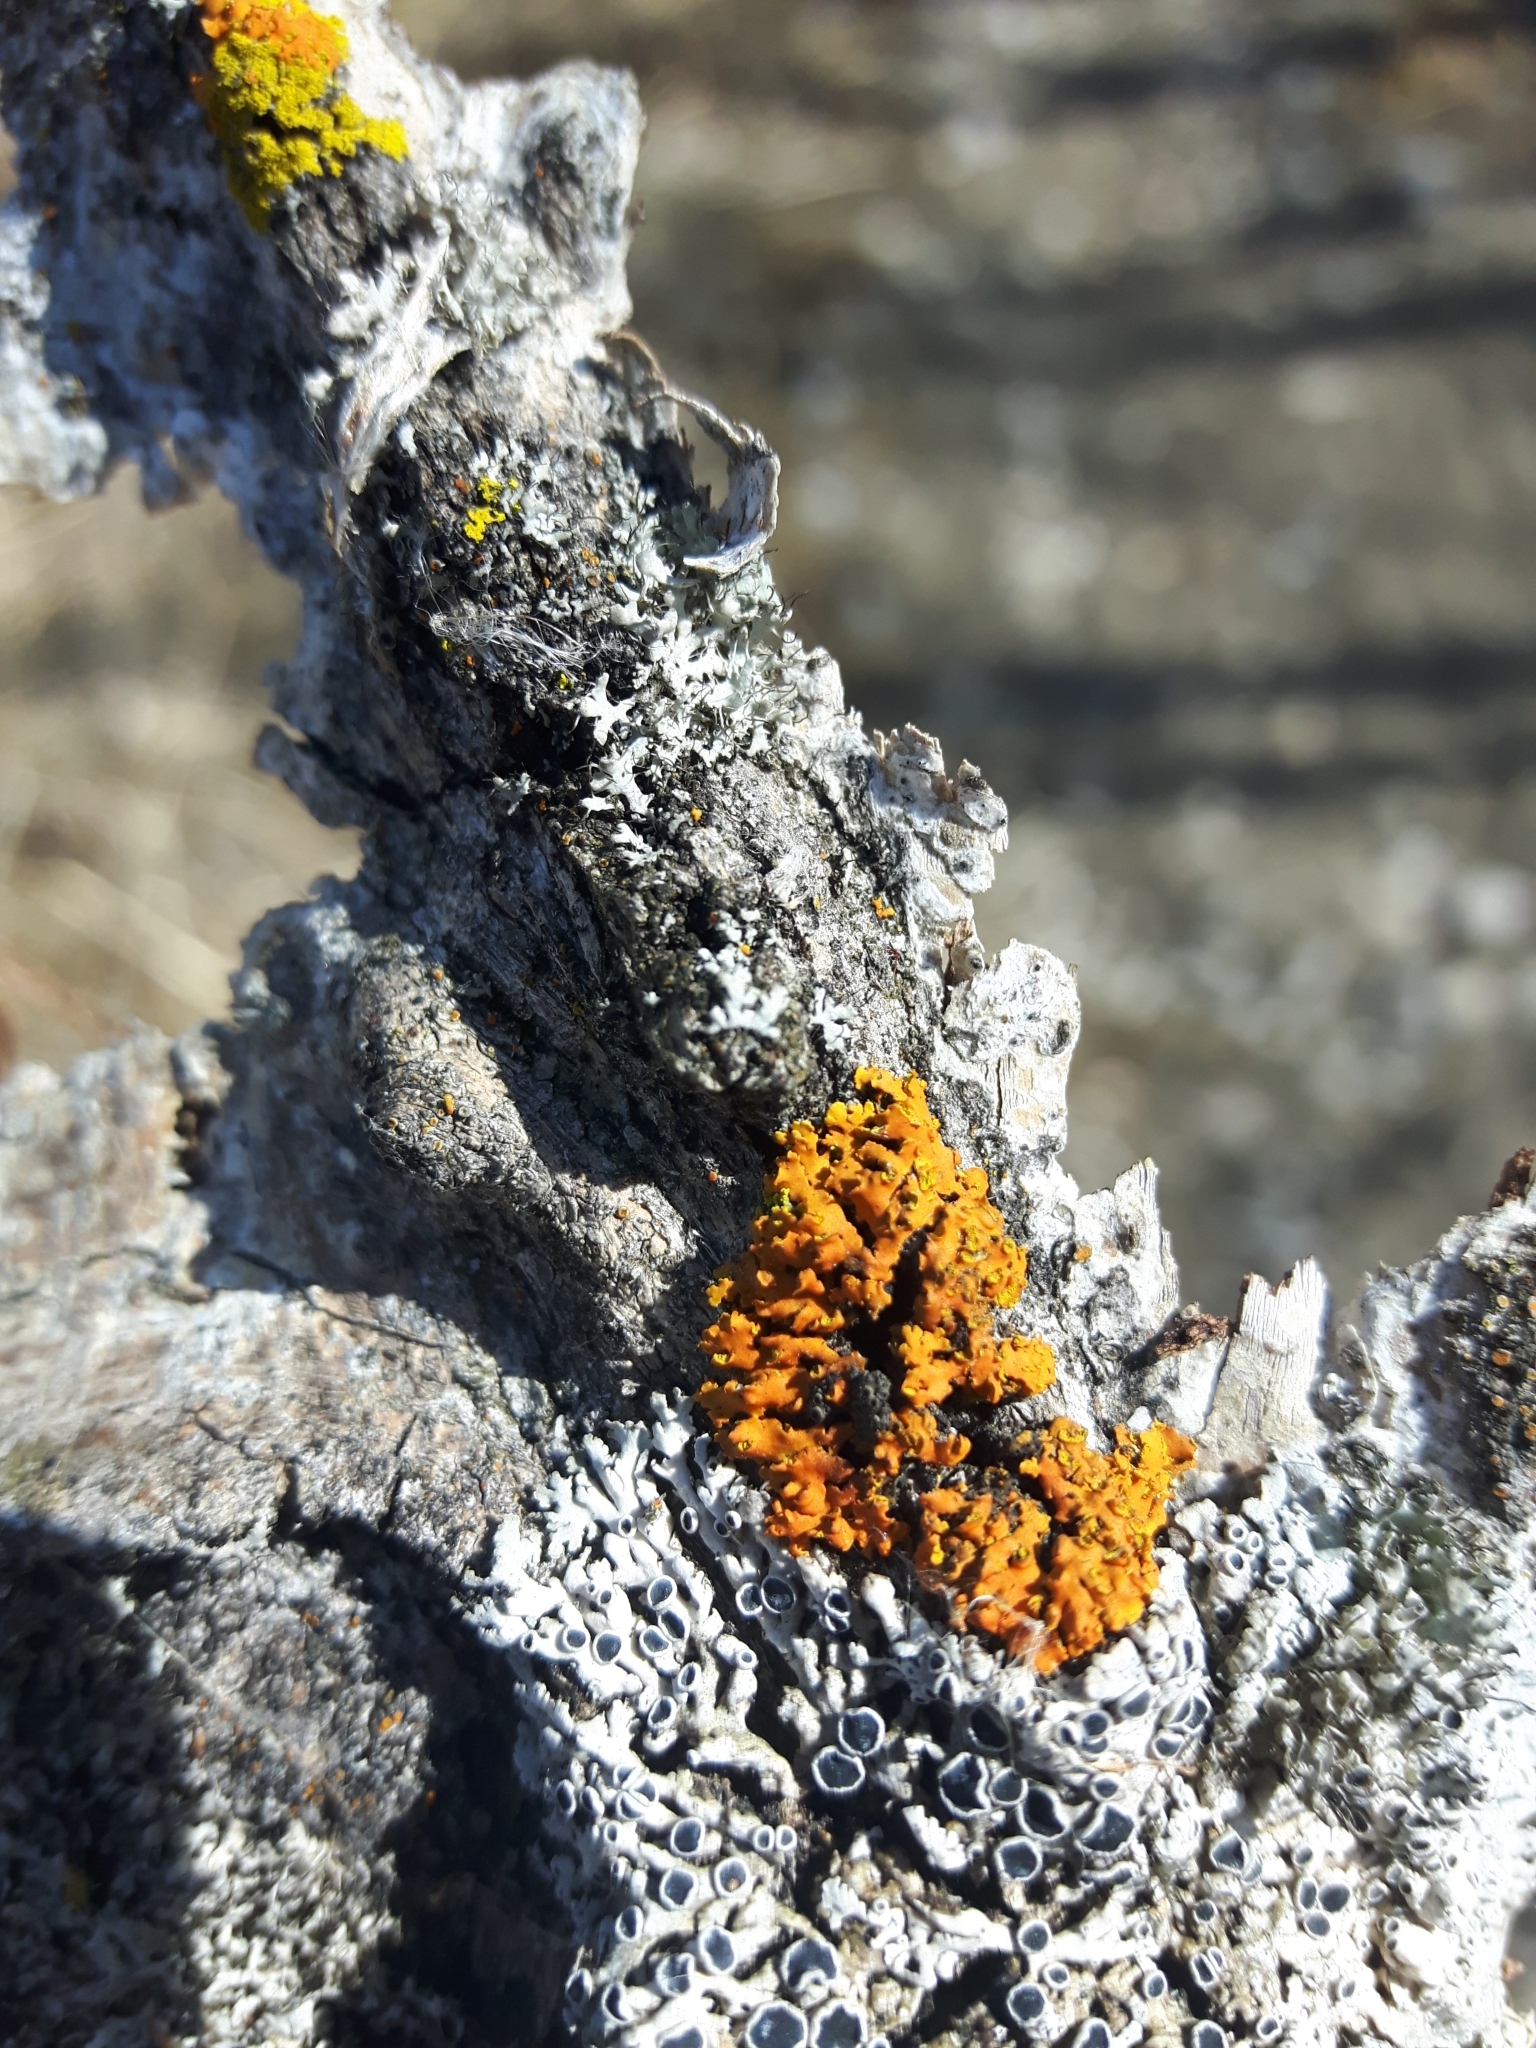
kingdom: Fungi
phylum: Ascomycota
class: Lecanoromycetes
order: Teloschistales
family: Teloschistaceae
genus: Oxneria
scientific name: Oxneria fallax
